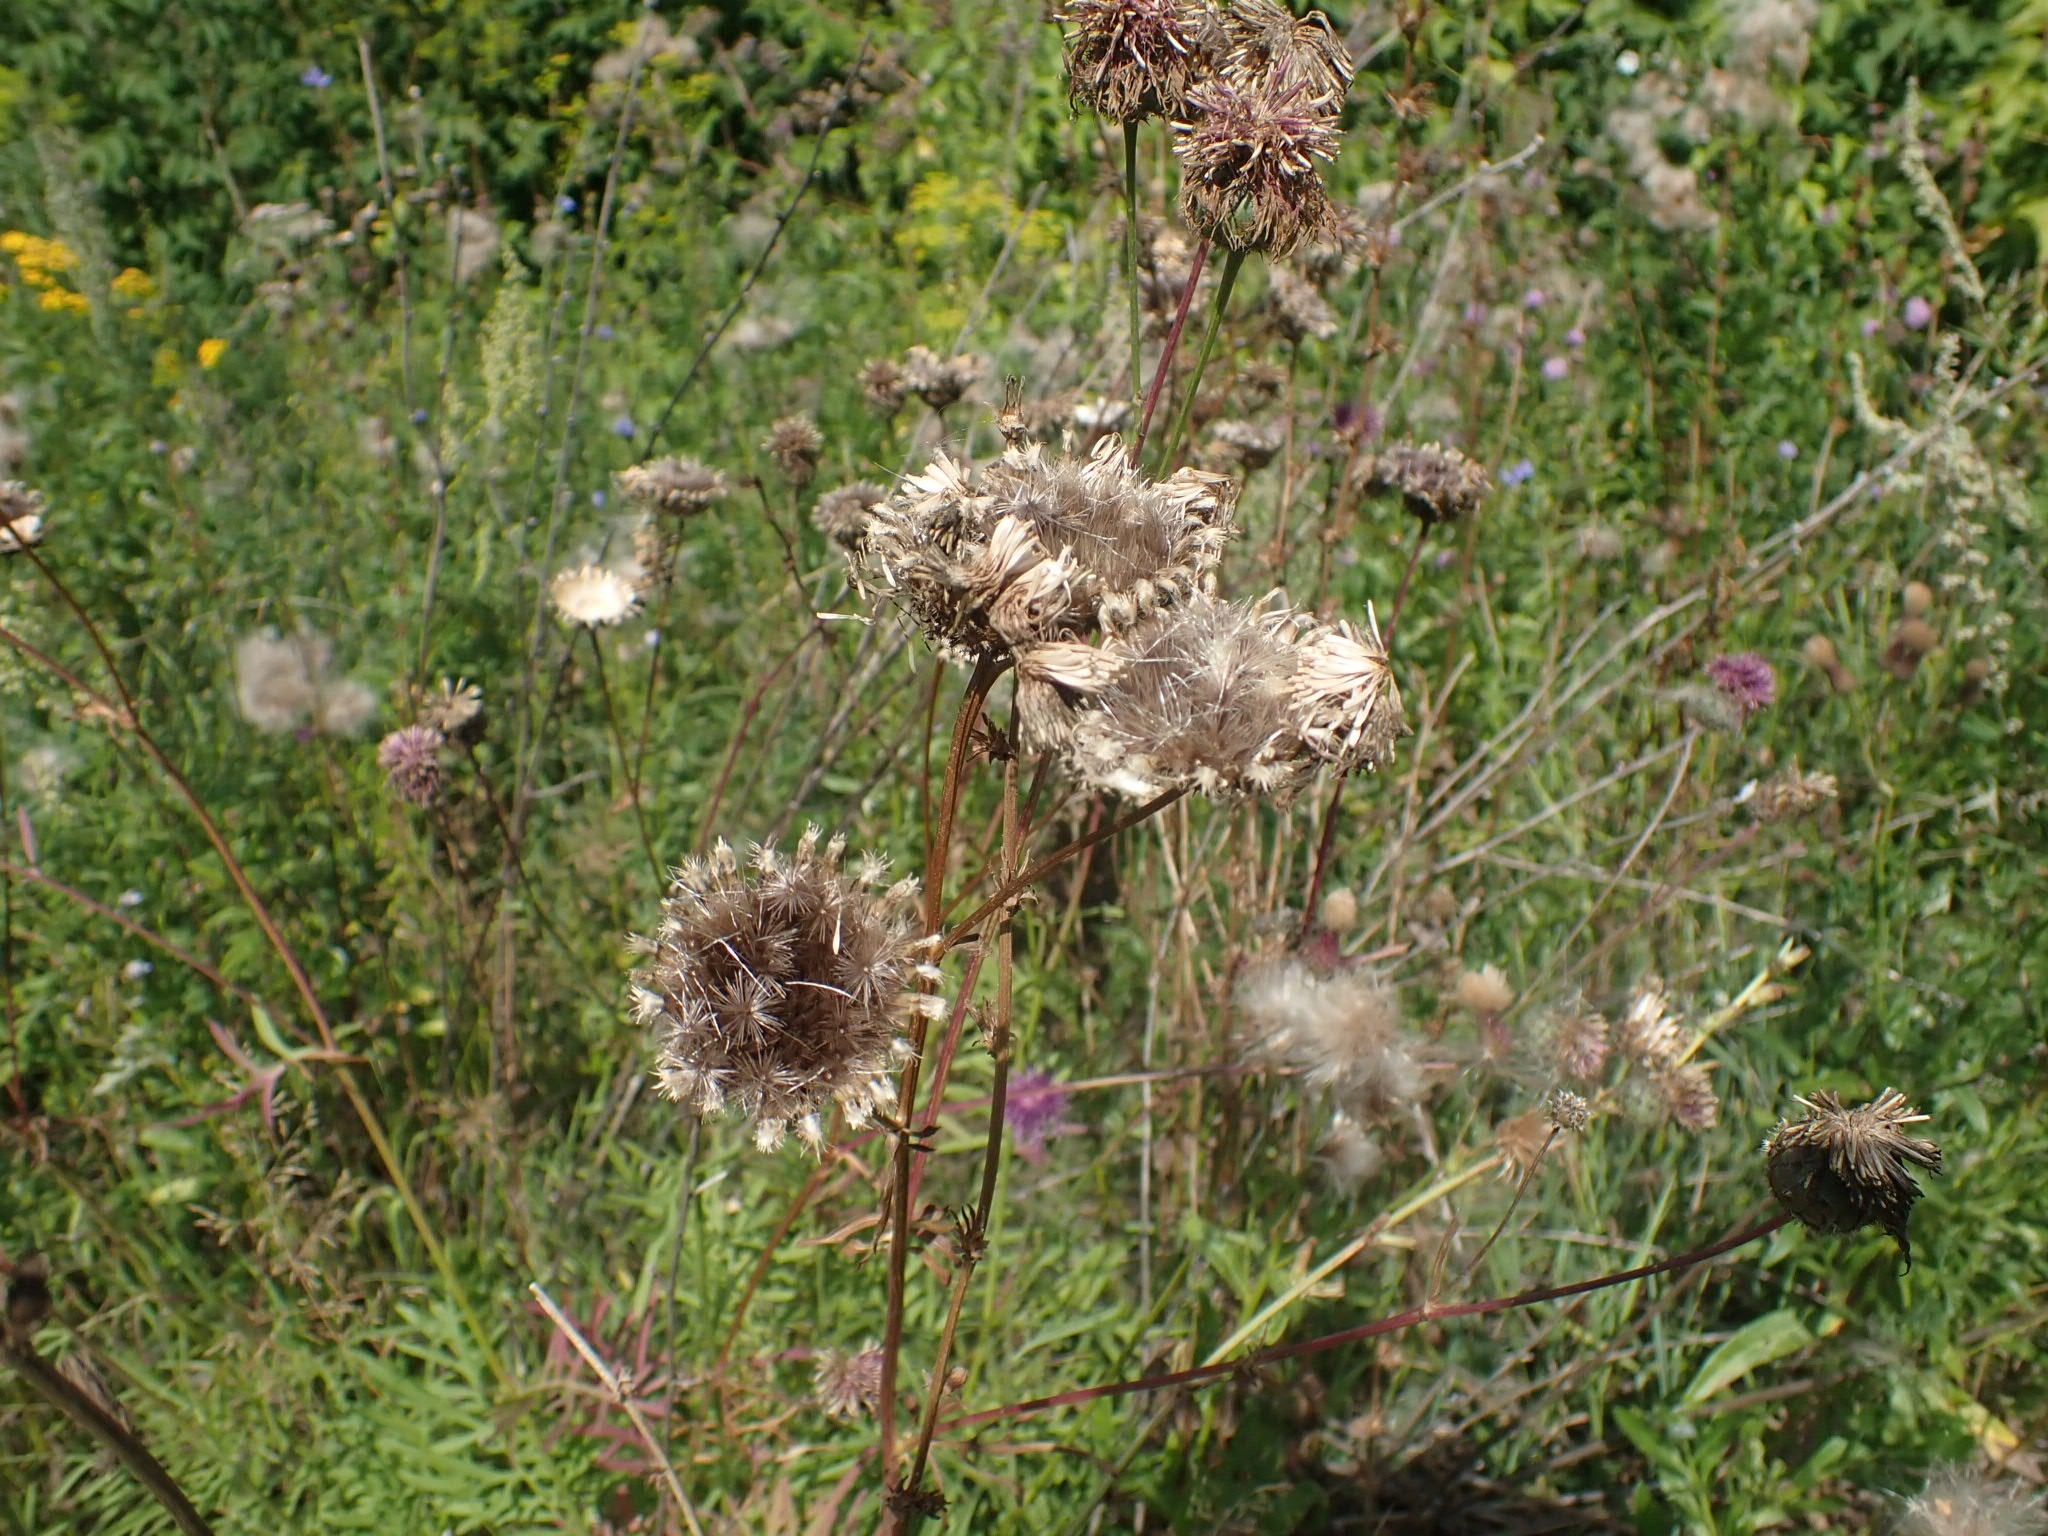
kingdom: Plantae
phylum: Tracheophyta
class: Magnoliopsida
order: Asterales
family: Asteraceae
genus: Centaurea
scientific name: Centaurea scabiosa
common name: Greater knapweed
